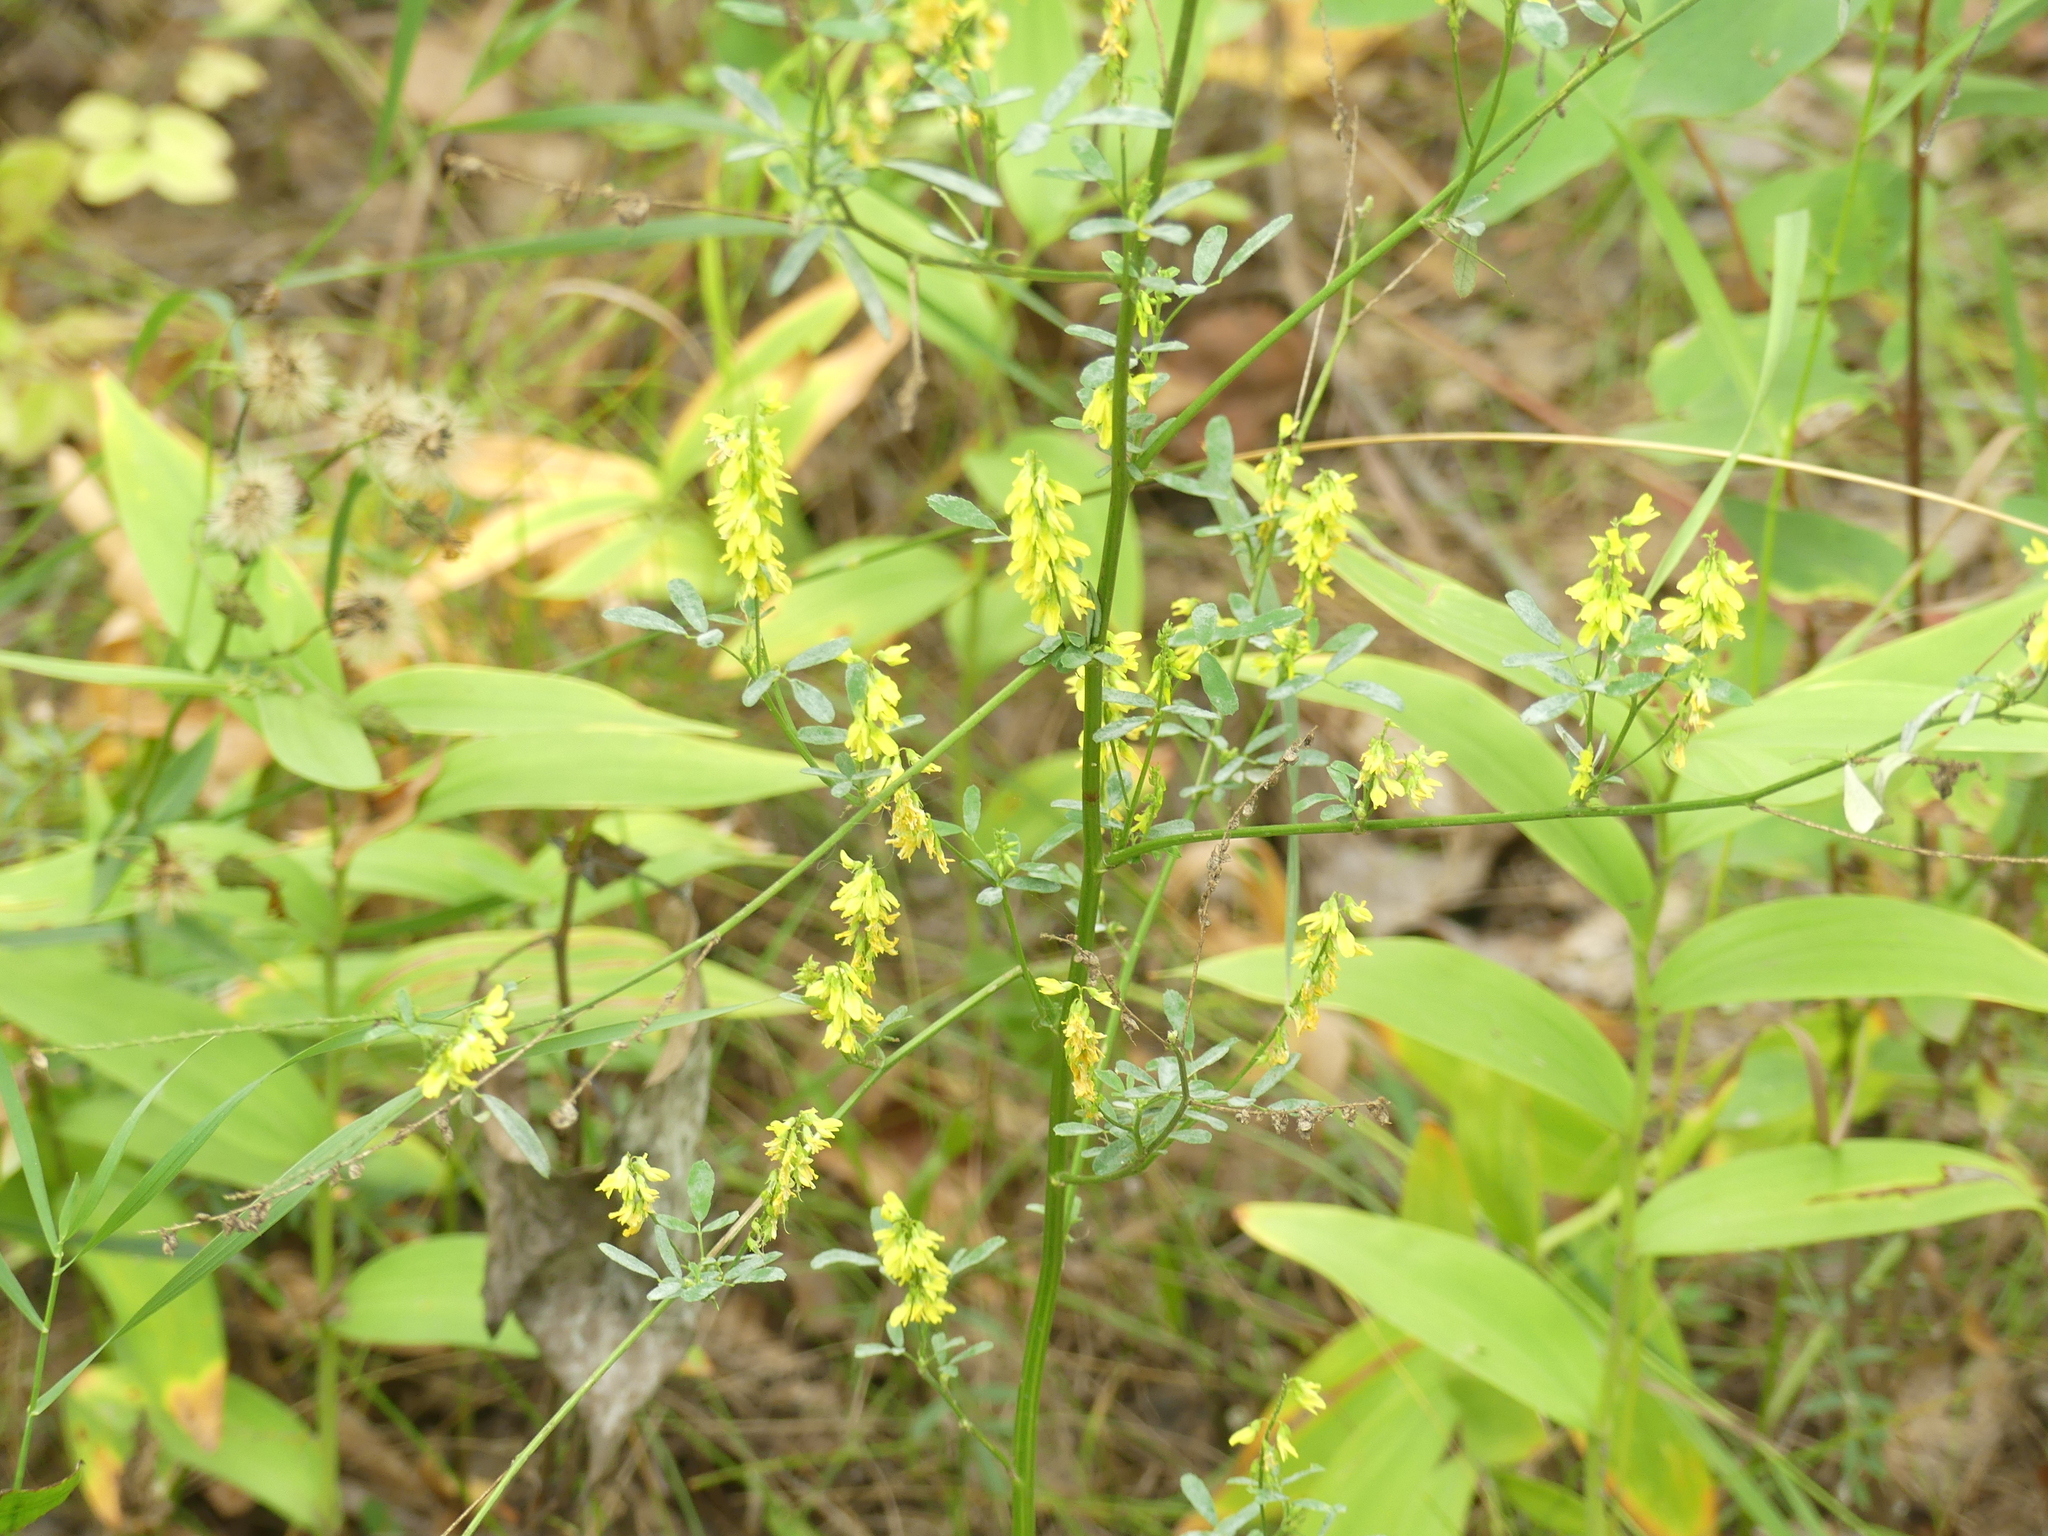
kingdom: Plantae
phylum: Tracheophyta
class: Magnoliopsida
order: Fabales
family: Fabaceae
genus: Melilotus
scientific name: Melilotus officinalis
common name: Sweetclover
